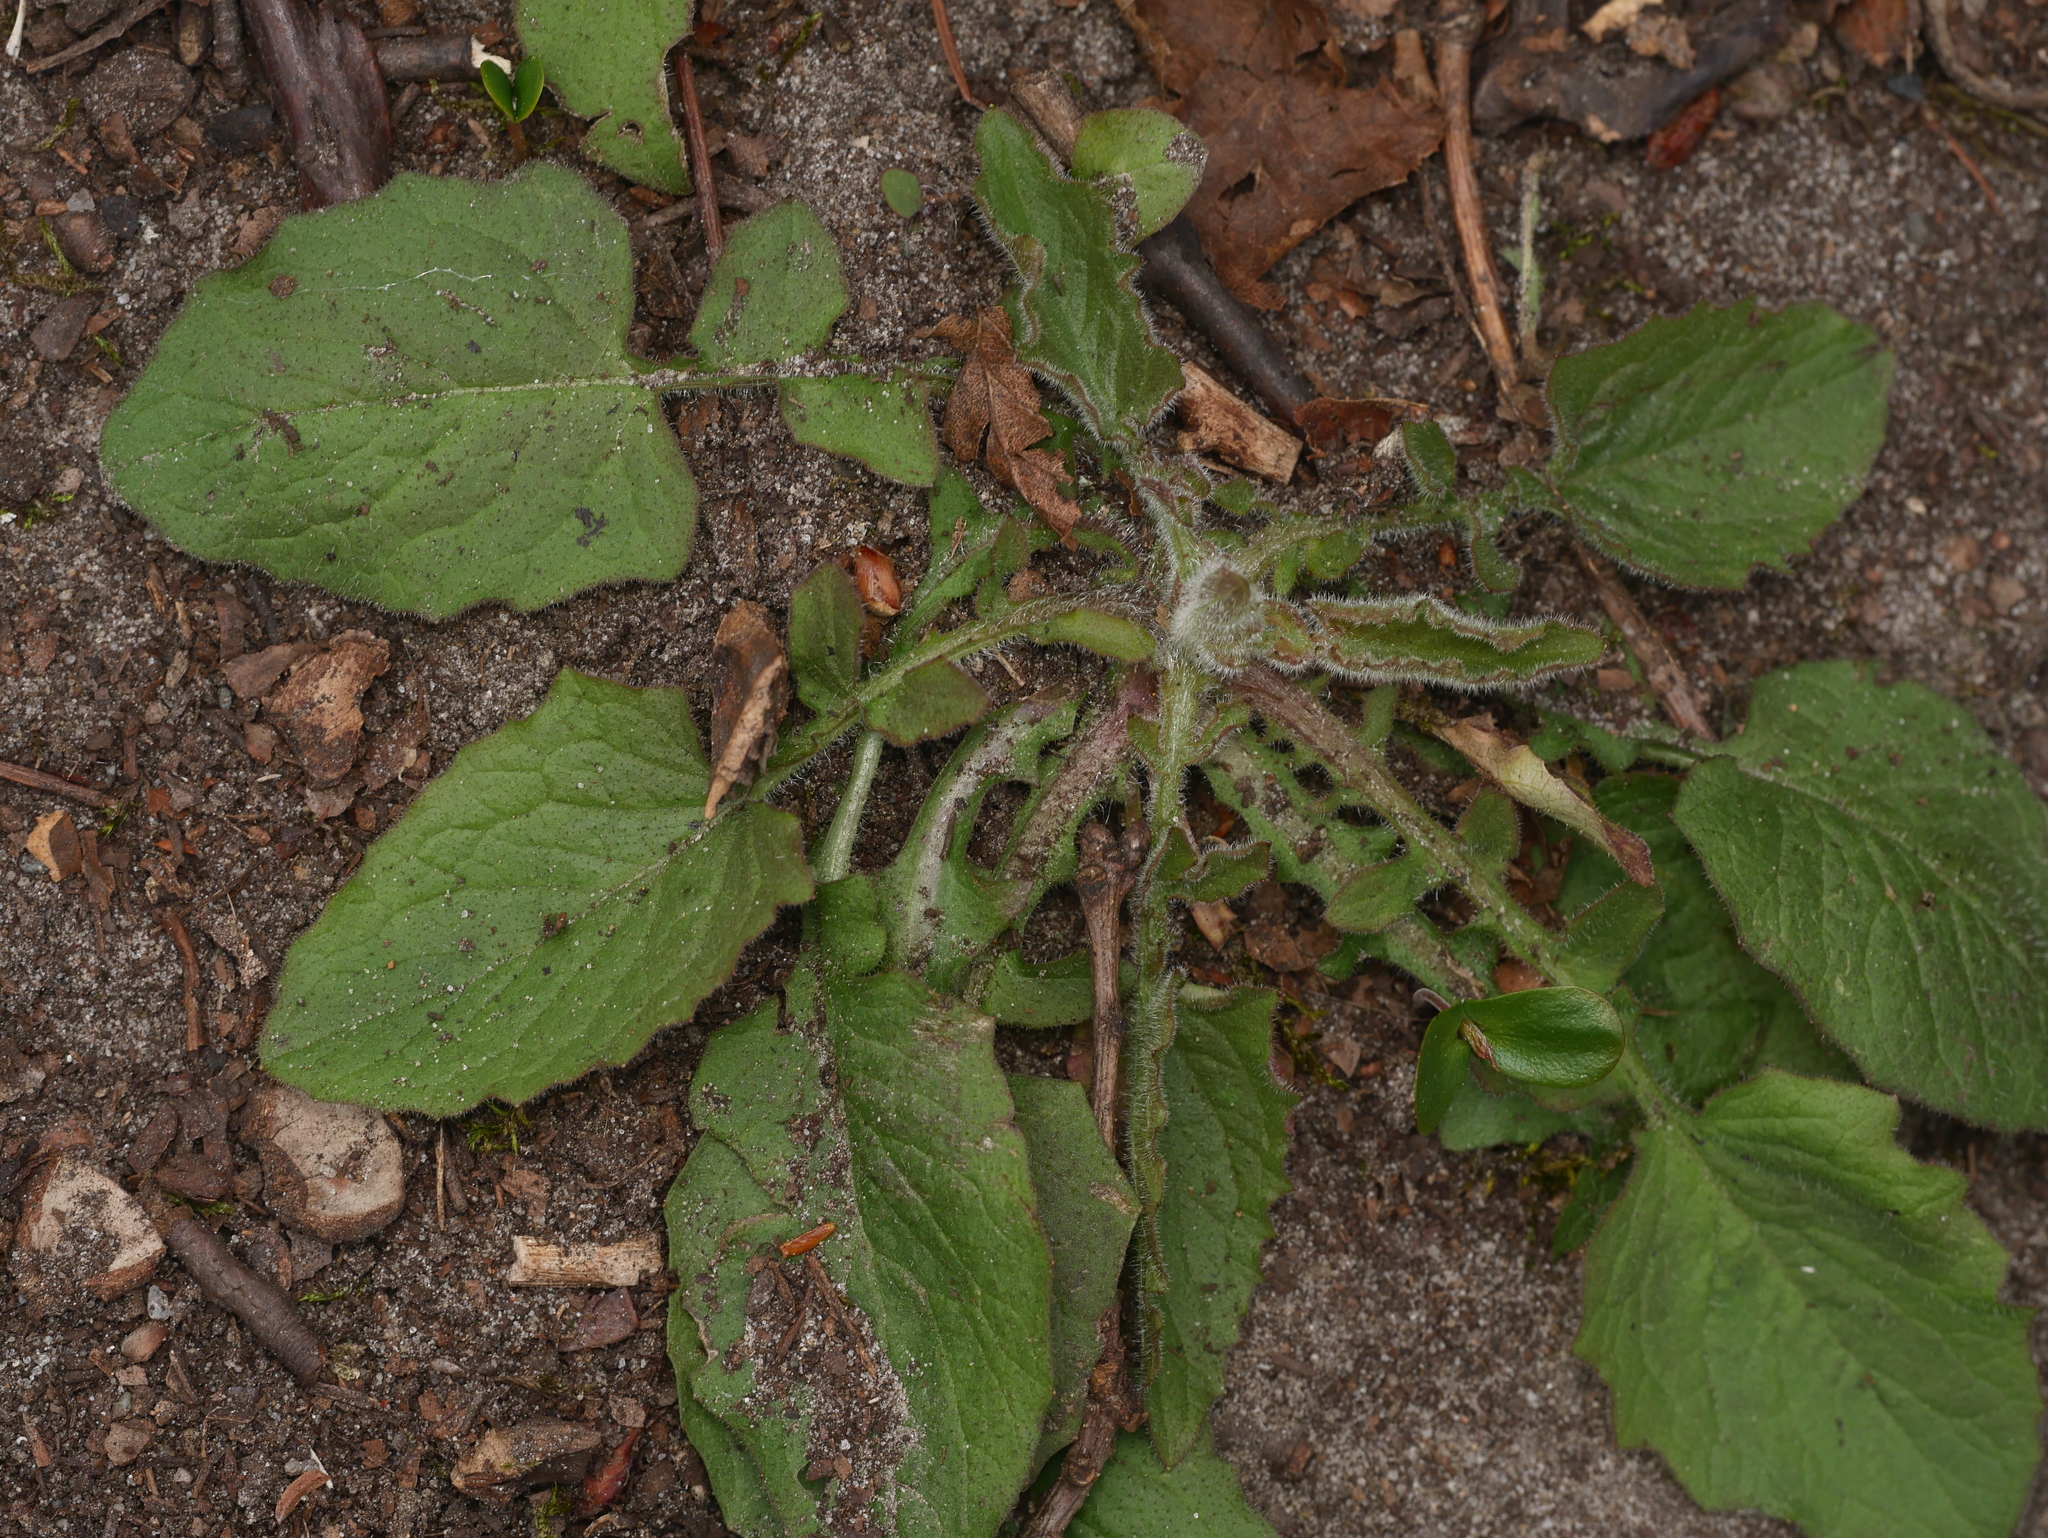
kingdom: Plantae
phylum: Tracheophyta
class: Magnoliopsida
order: Asterales
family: Asteraceae
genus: Lapsana
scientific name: Lapsana communis
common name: Nipplewort
